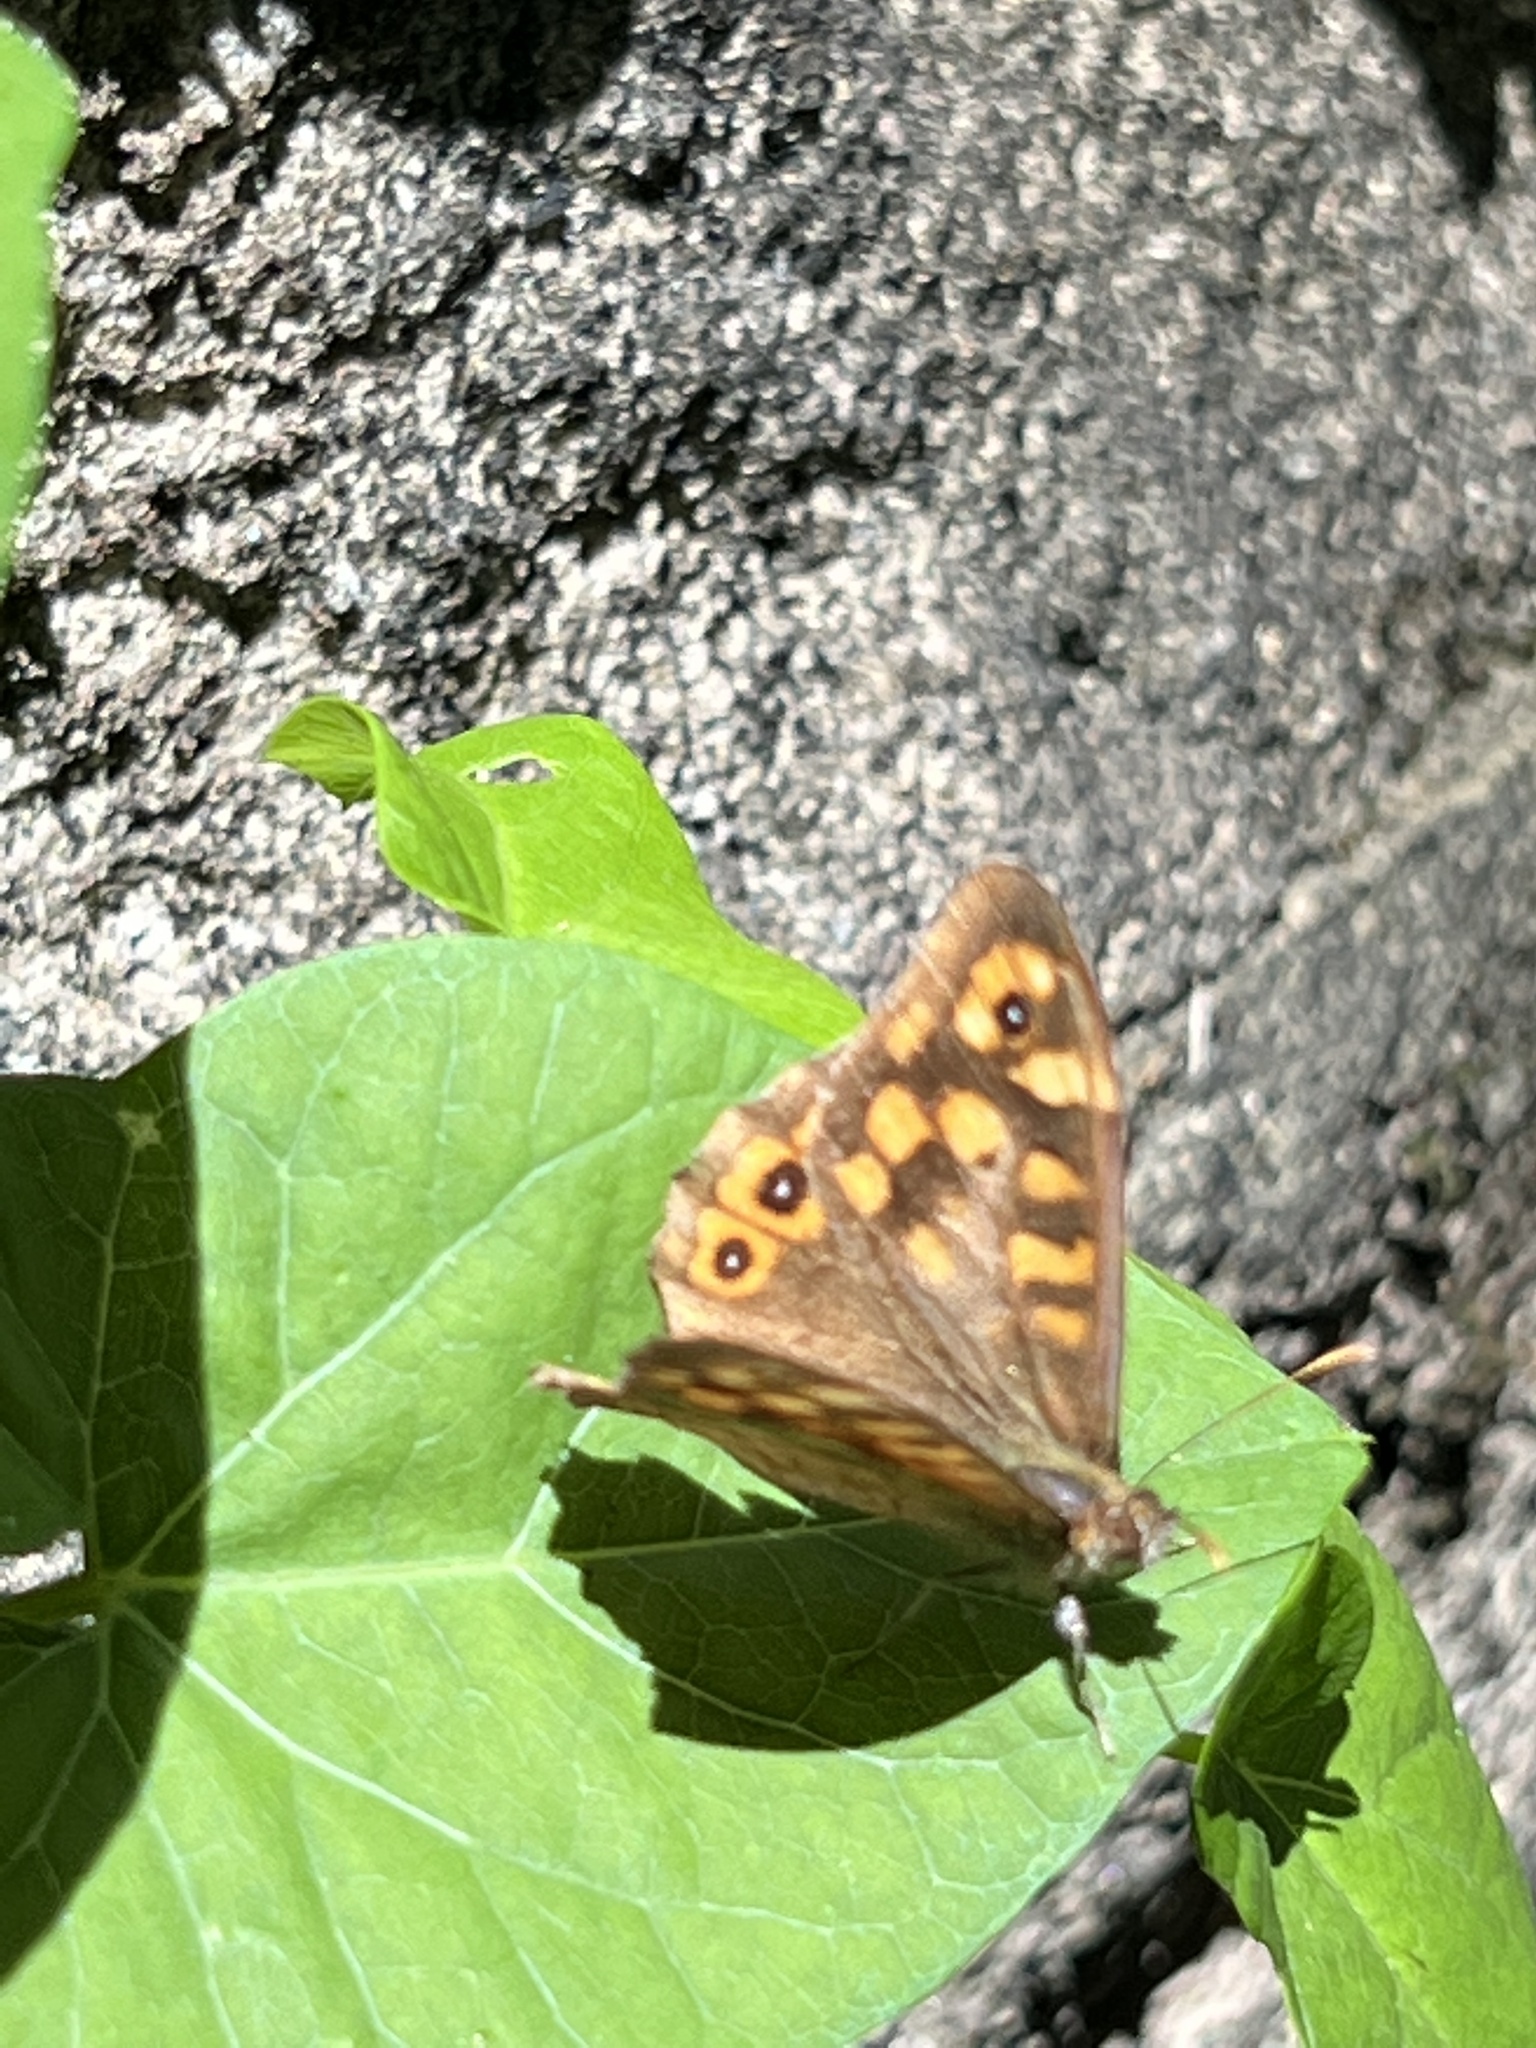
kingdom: Animalia
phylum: Arthropoda
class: Insecta
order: Lepidoptera
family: Nymphalidae
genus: Pararge
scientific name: Pararge aegeria
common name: Speckled wood
